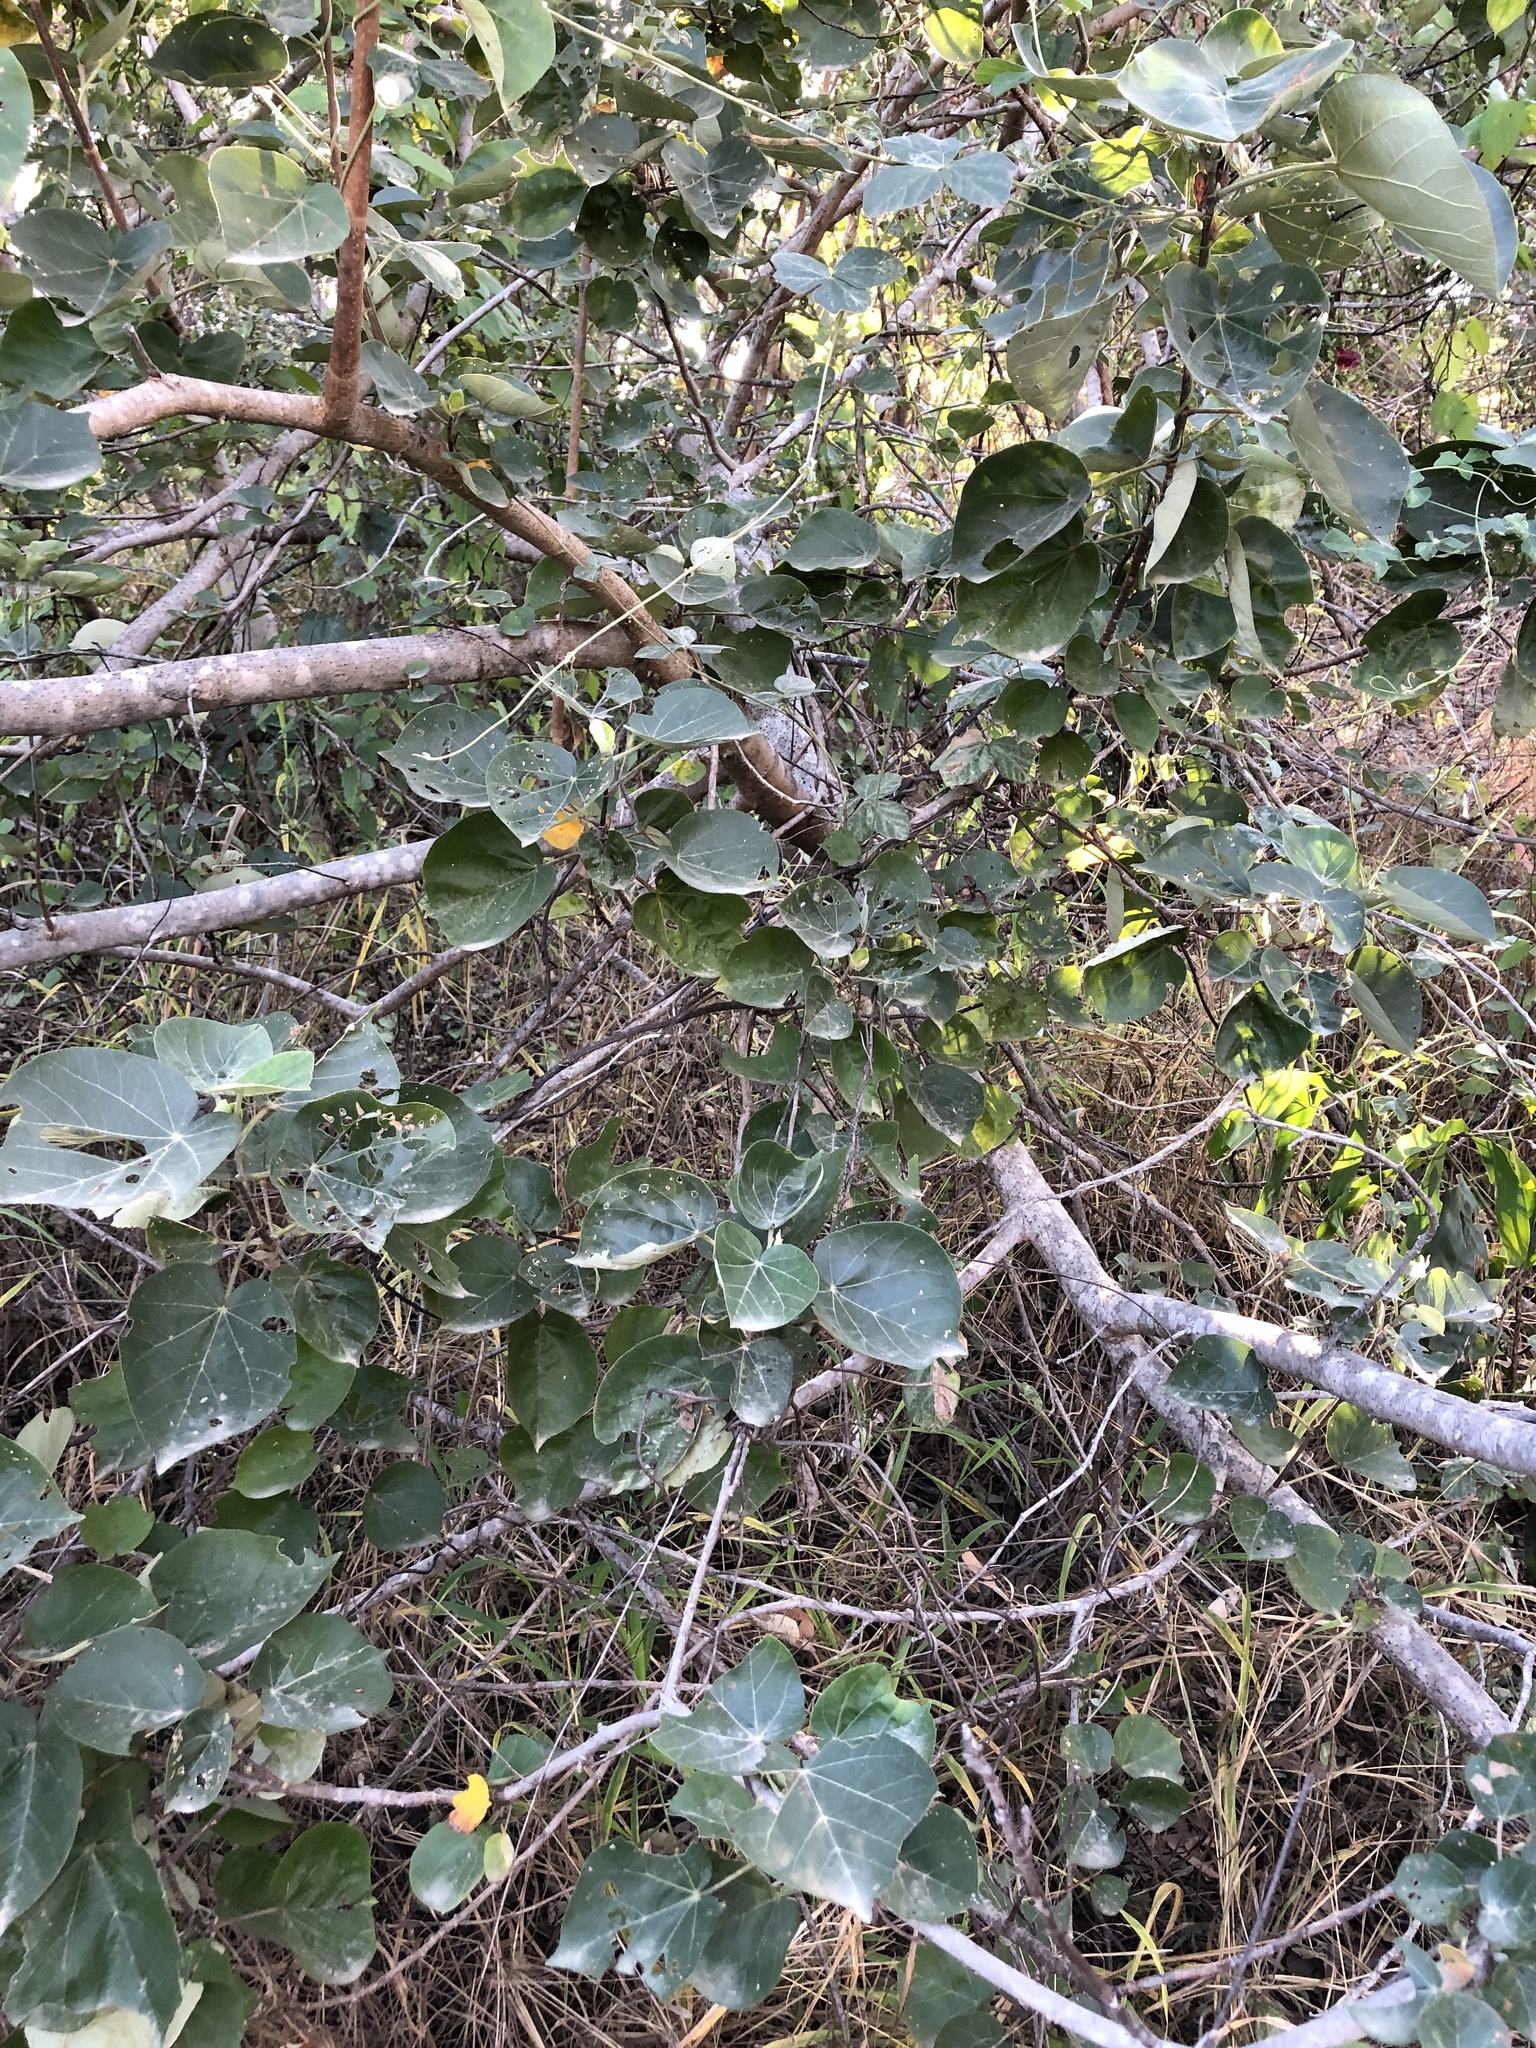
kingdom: Plantae
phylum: Tracheophyta
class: Magnoliopsida
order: Malvales
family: Malvaceae
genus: Talipariti
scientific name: Talipariti tiliaceum
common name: Sea hibiscus
